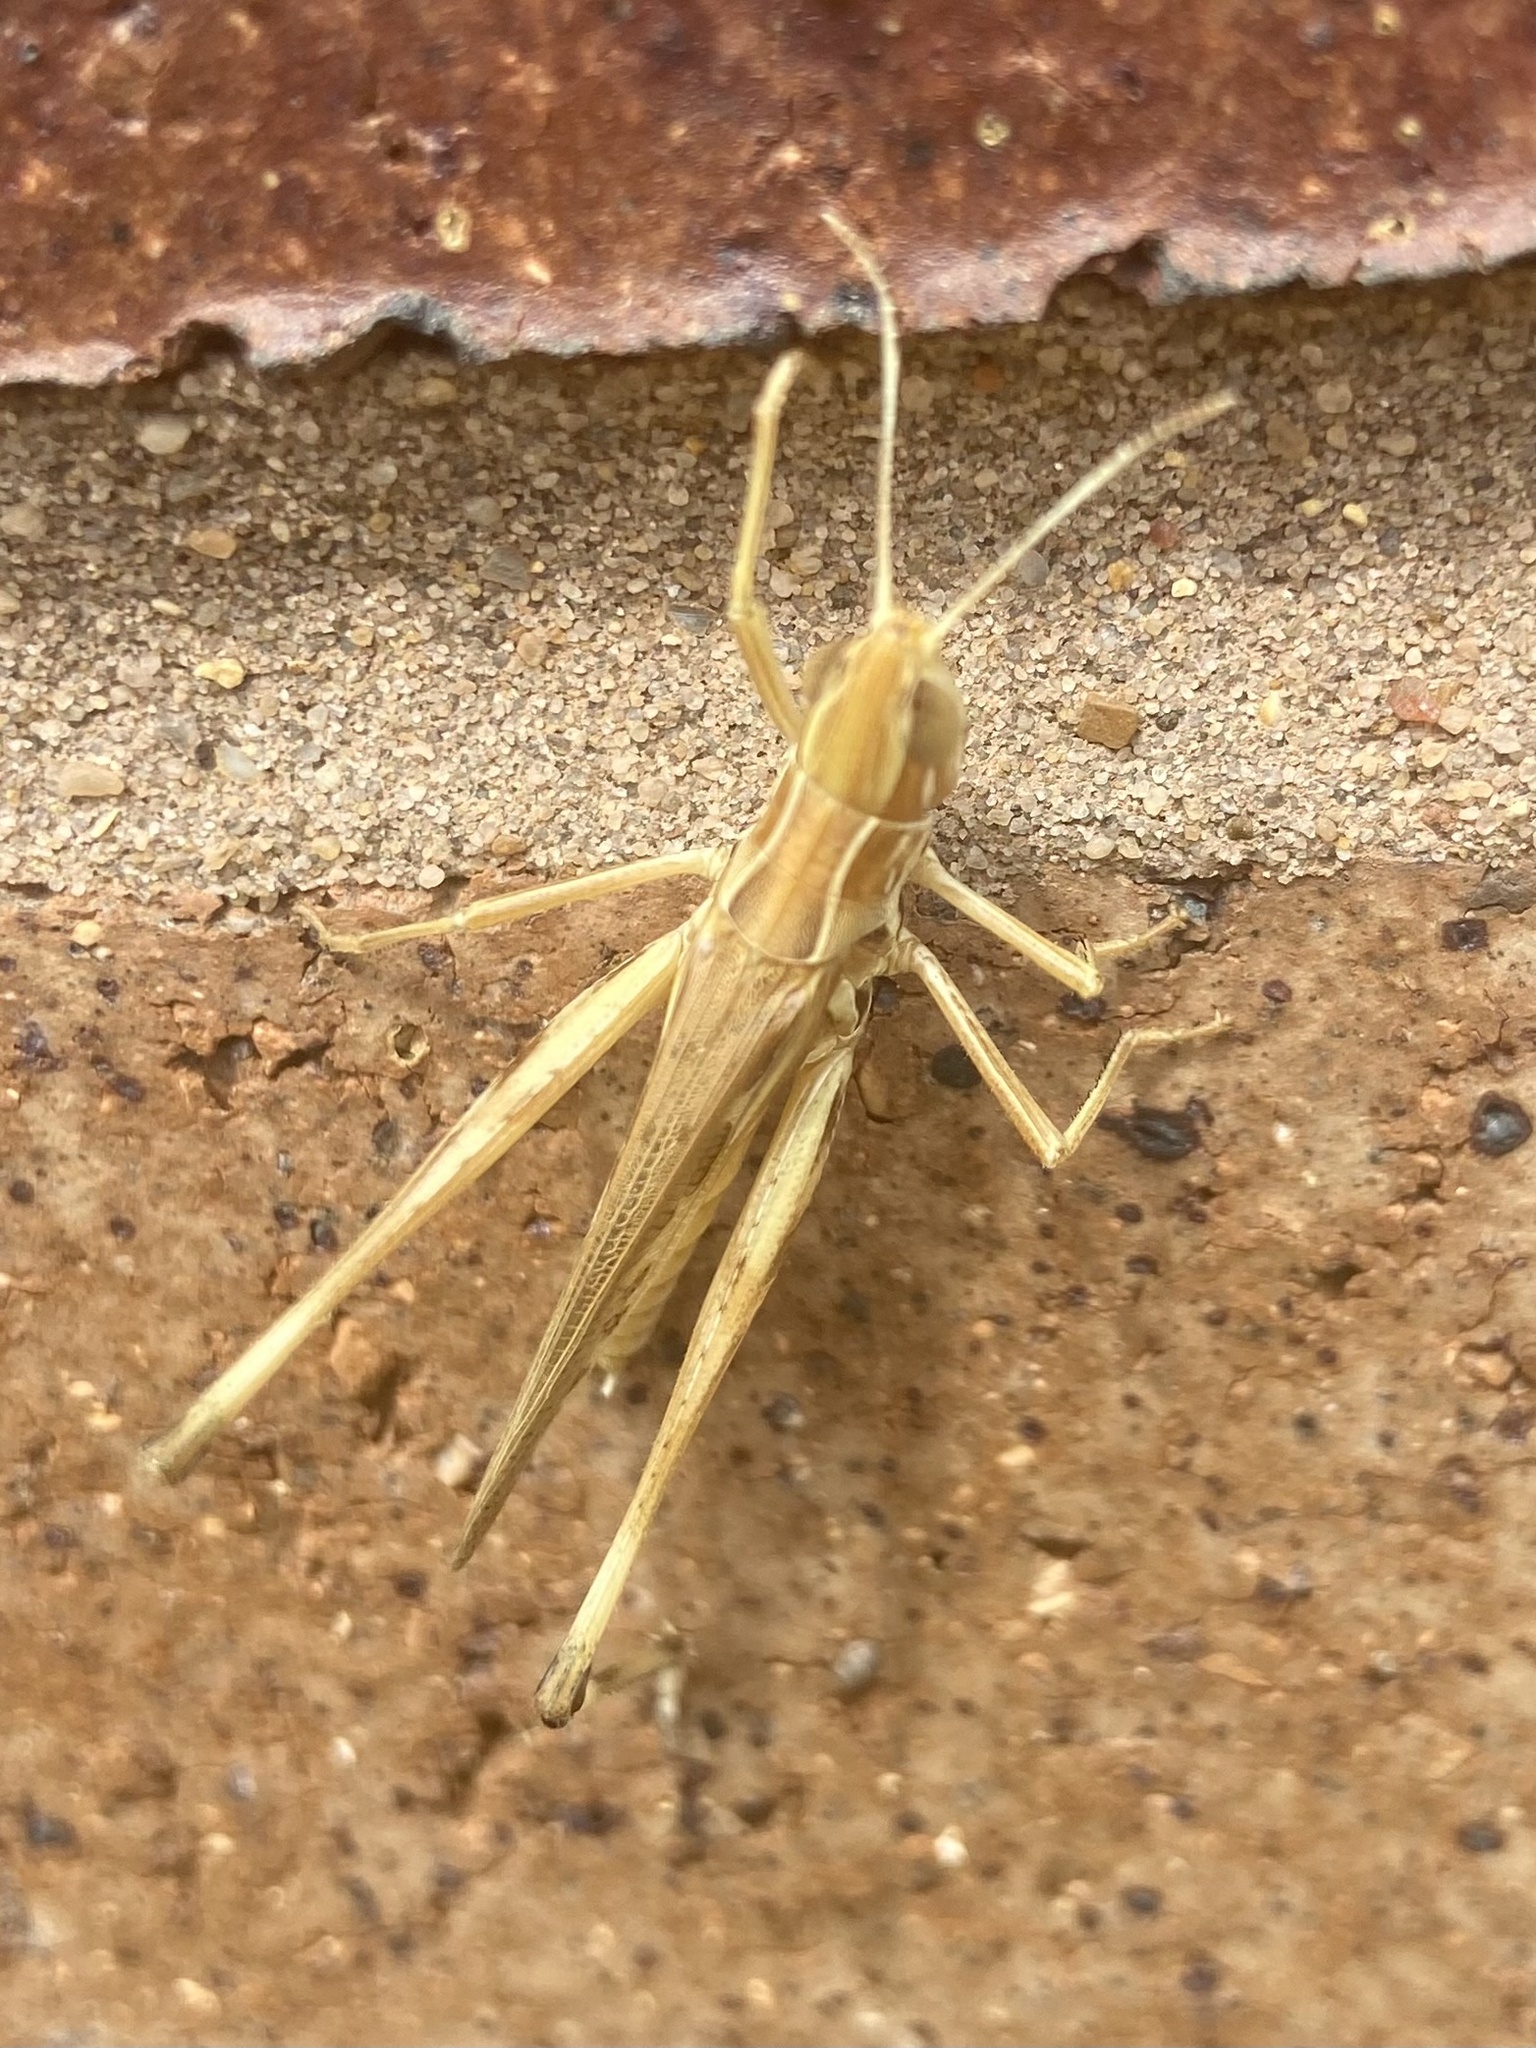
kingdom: Animalia
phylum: Arthropoda
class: Insecta
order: Orthoptera
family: Acrididae
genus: Syrbula
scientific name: Syrbula admirabilis
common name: Handsome grasshopper
